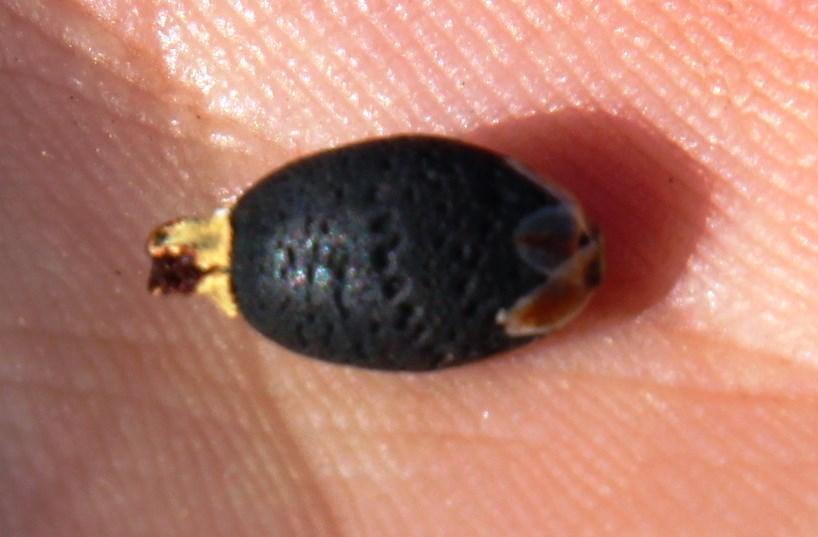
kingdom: Plantae
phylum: Tracheophyta
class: Liliopsida
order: Poales
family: Restionaceae
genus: Willdenowia
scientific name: Willdenowia incurvata
